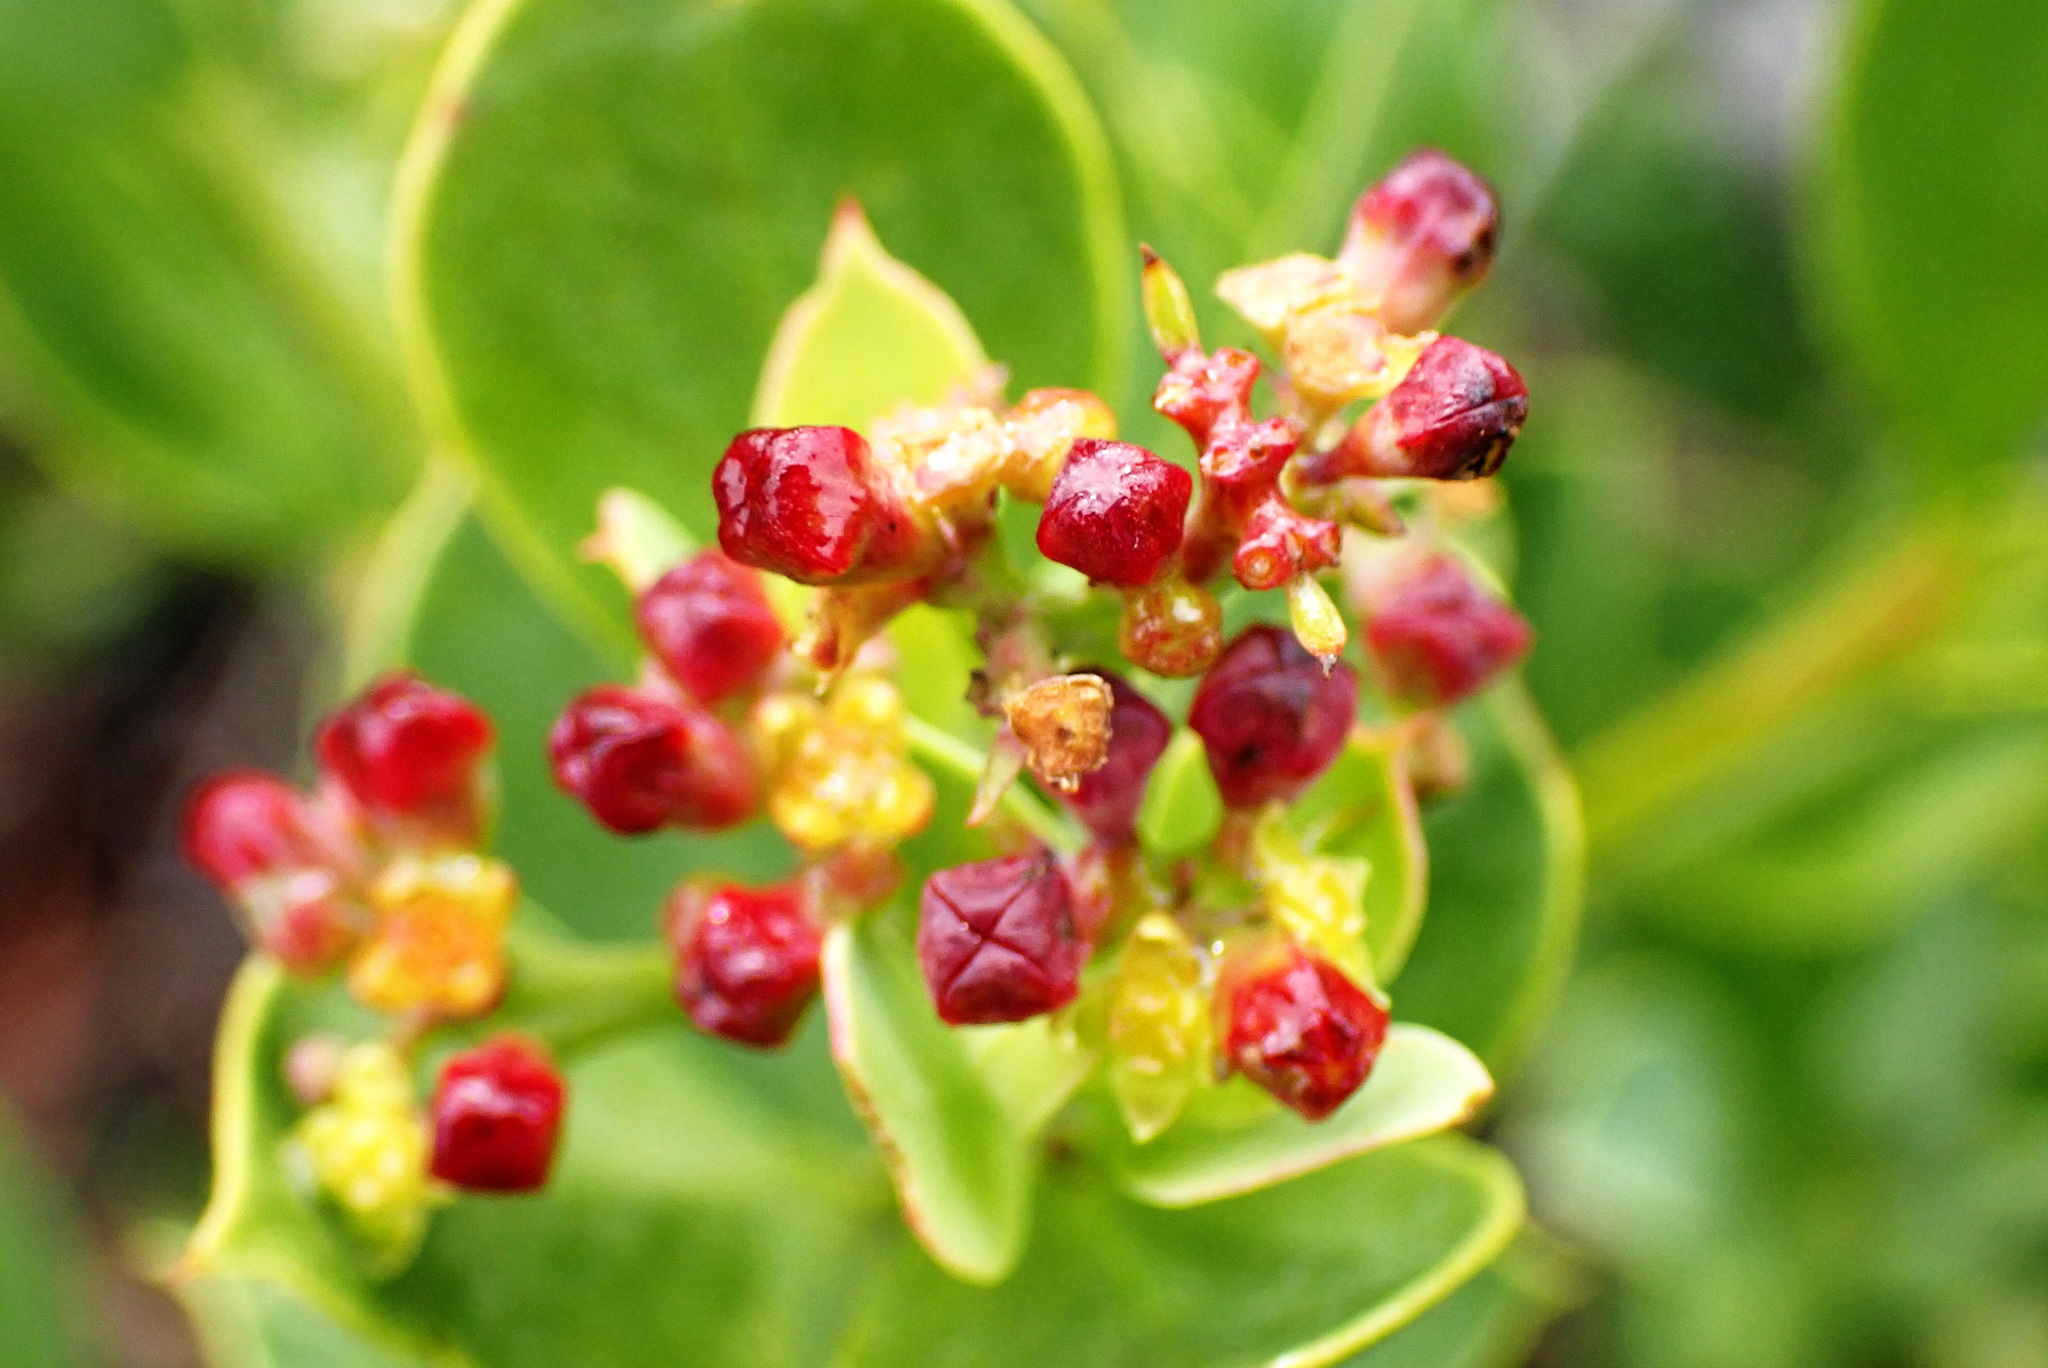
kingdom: Plantae
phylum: Tracheophyta
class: Magnoliopsida
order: Santalales
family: Santalaceae
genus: Osyris
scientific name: Osyris compressa
